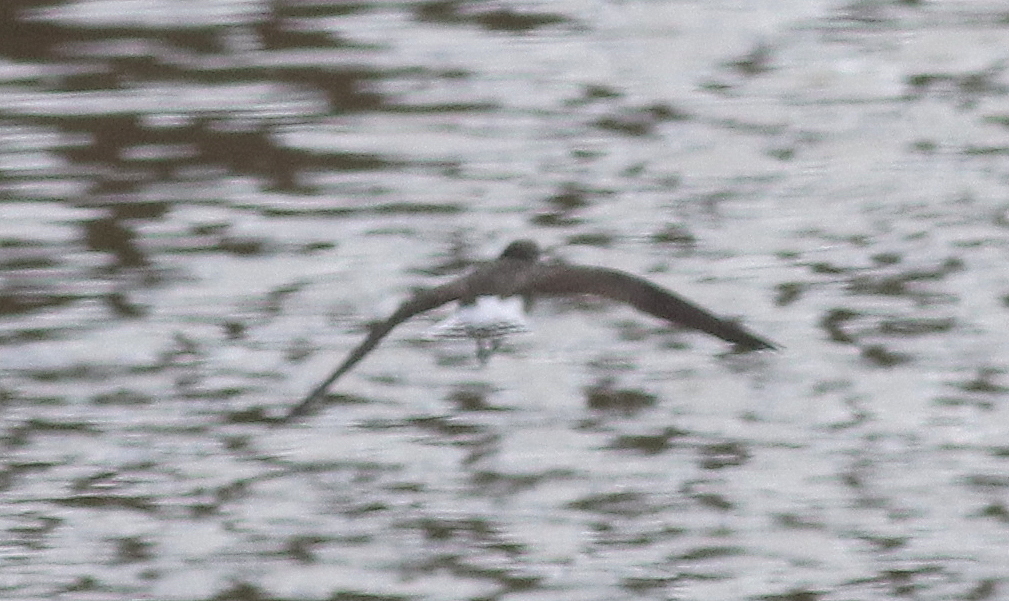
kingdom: Animalia
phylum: Chordata
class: Aves
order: Charadriiformes
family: Scolopacidae
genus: Tringa
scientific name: Tringa ochropus
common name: Green sandpiper
